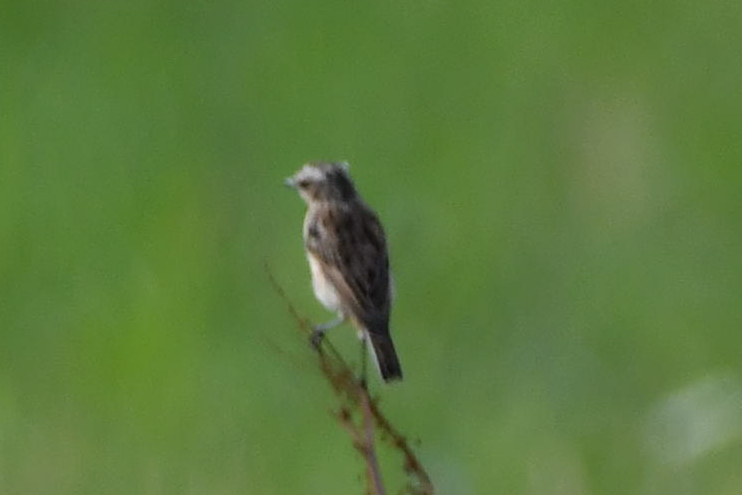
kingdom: Animalia
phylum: Chordata
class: Aves
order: Passeriformes
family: Muscicapidae
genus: Saxicola
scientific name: Saxicola rubetra
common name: Whinchat
